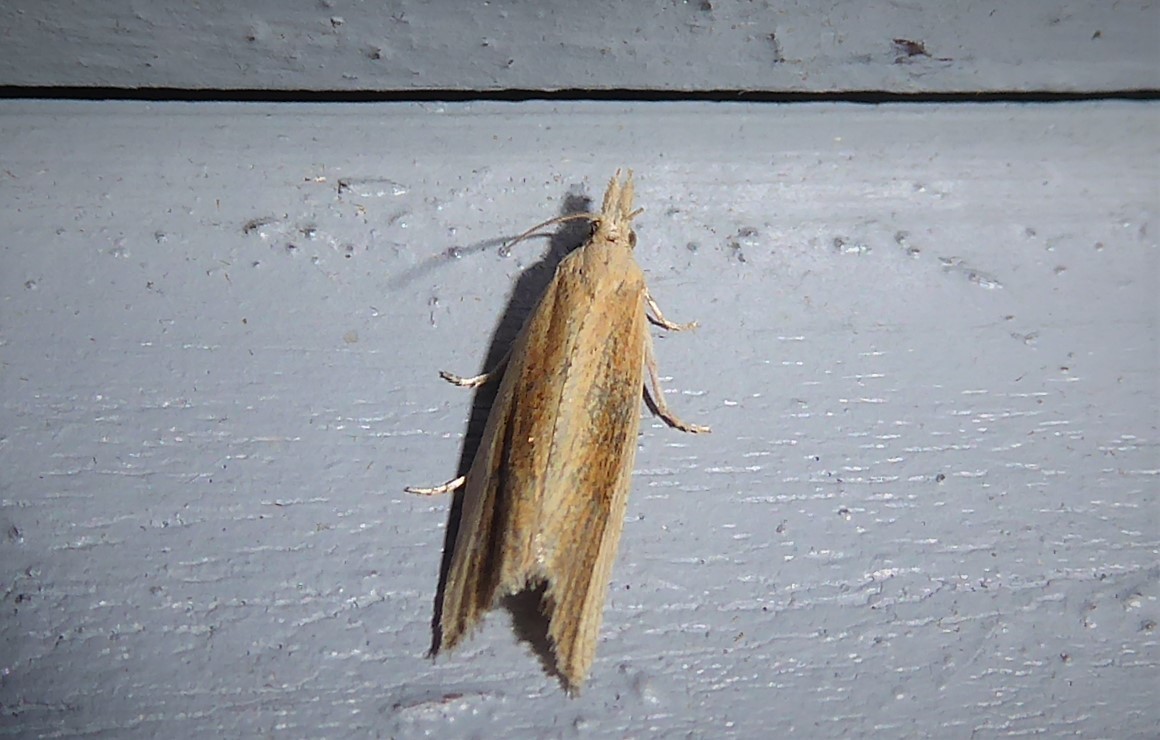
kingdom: Animalia
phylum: Arthropoda
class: Insecta
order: Lepidoptera
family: Tortricidae
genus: Bactra
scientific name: Bactra noteraula
